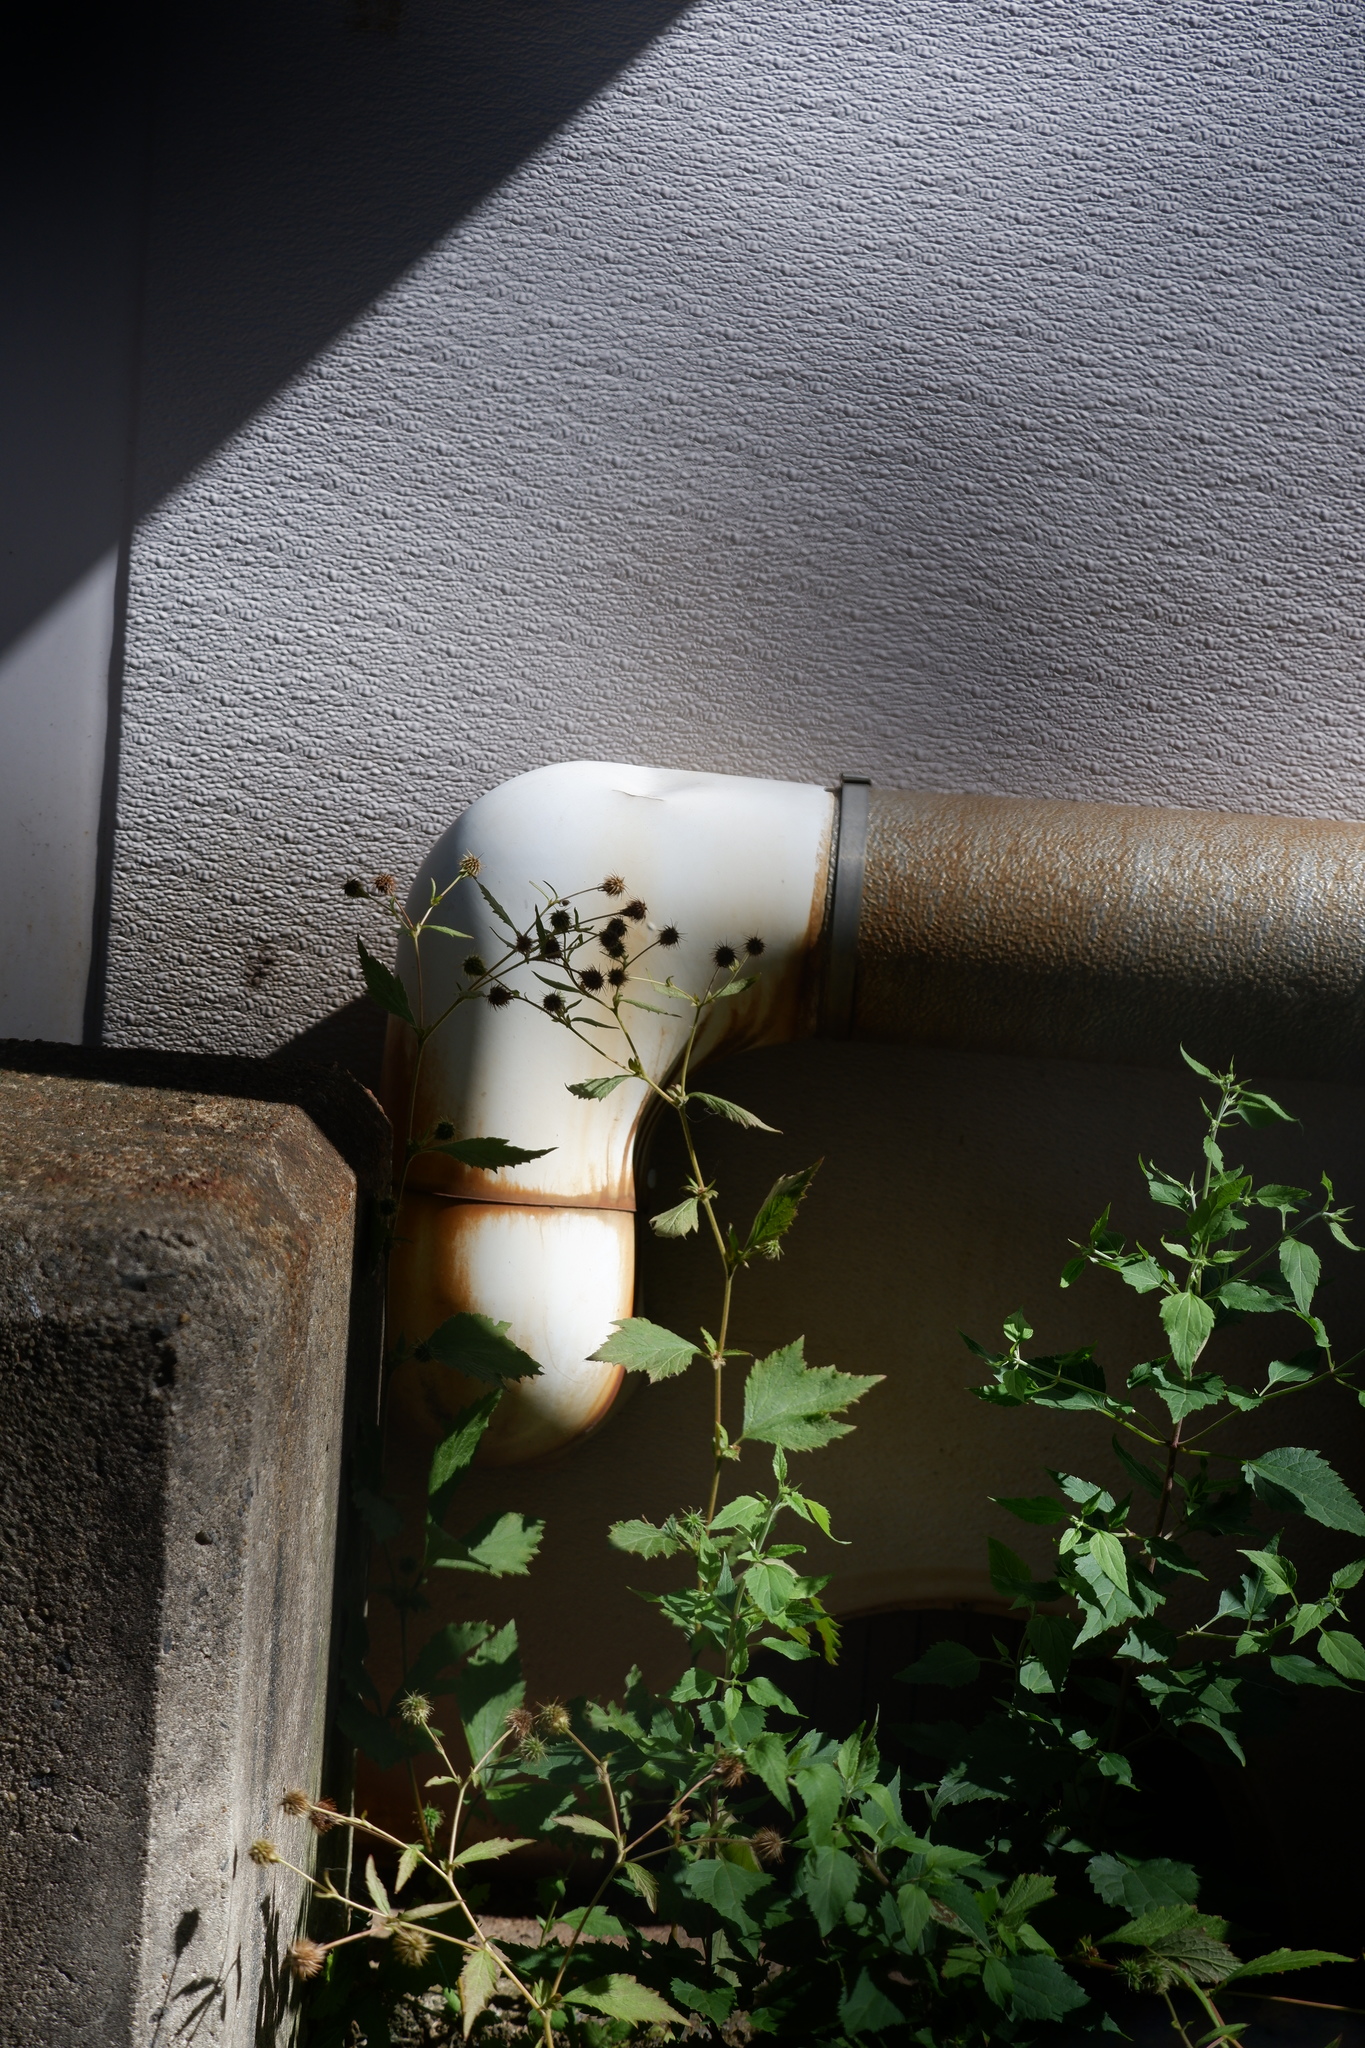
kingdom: Plantae
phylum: Tracheophyta
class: Magnoliopsida
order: Rosales
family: Rosaceae
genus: Geum
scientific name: Geum canadense
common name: White avens
